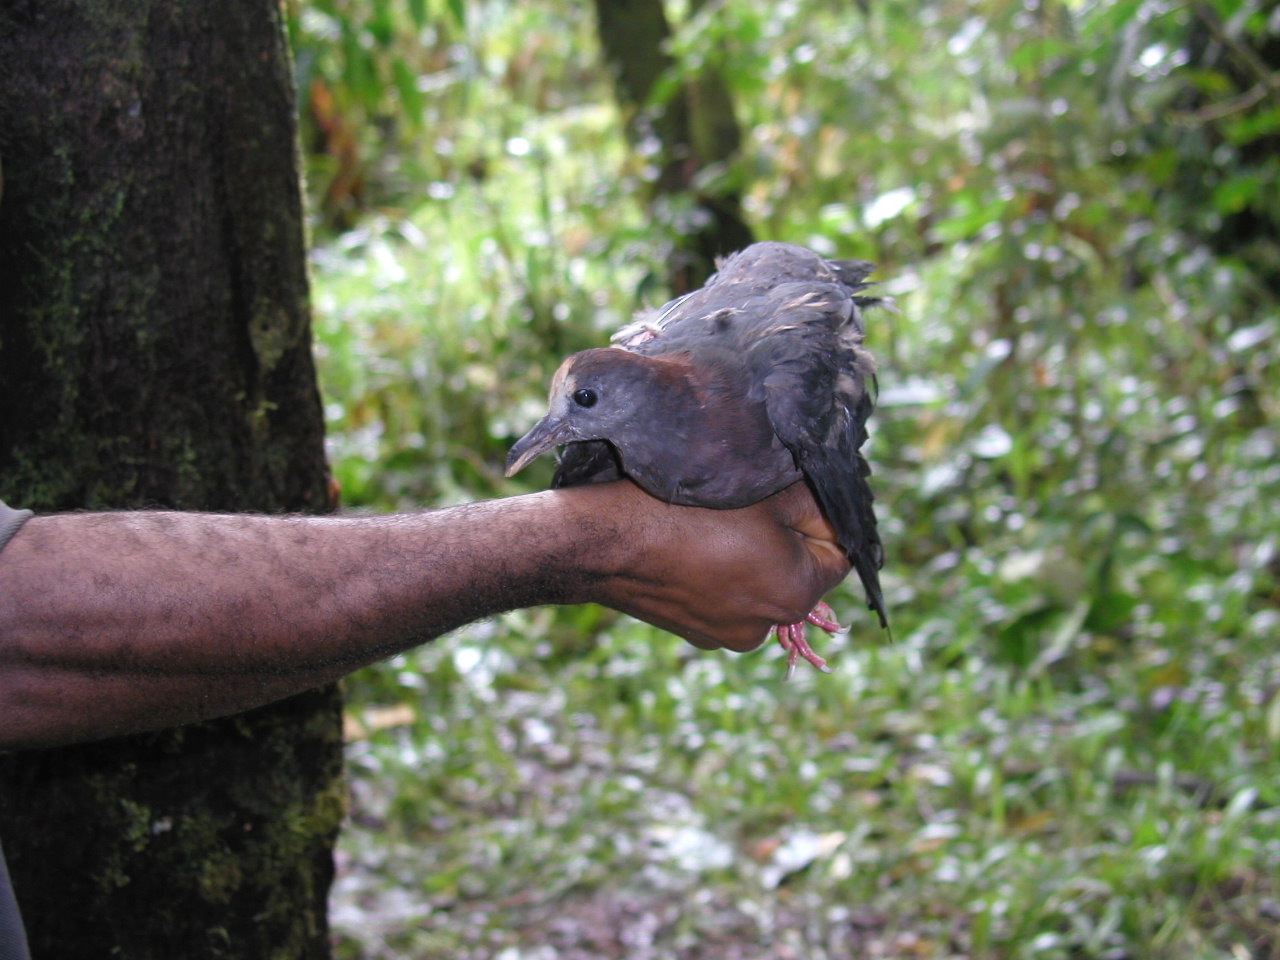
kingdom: Animalia
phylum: Chordata
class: Aves
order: Columbiformes
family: Columbidae
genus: Henicophaps
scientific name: Henicophaps albifrons
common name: New guinea bronzewing
